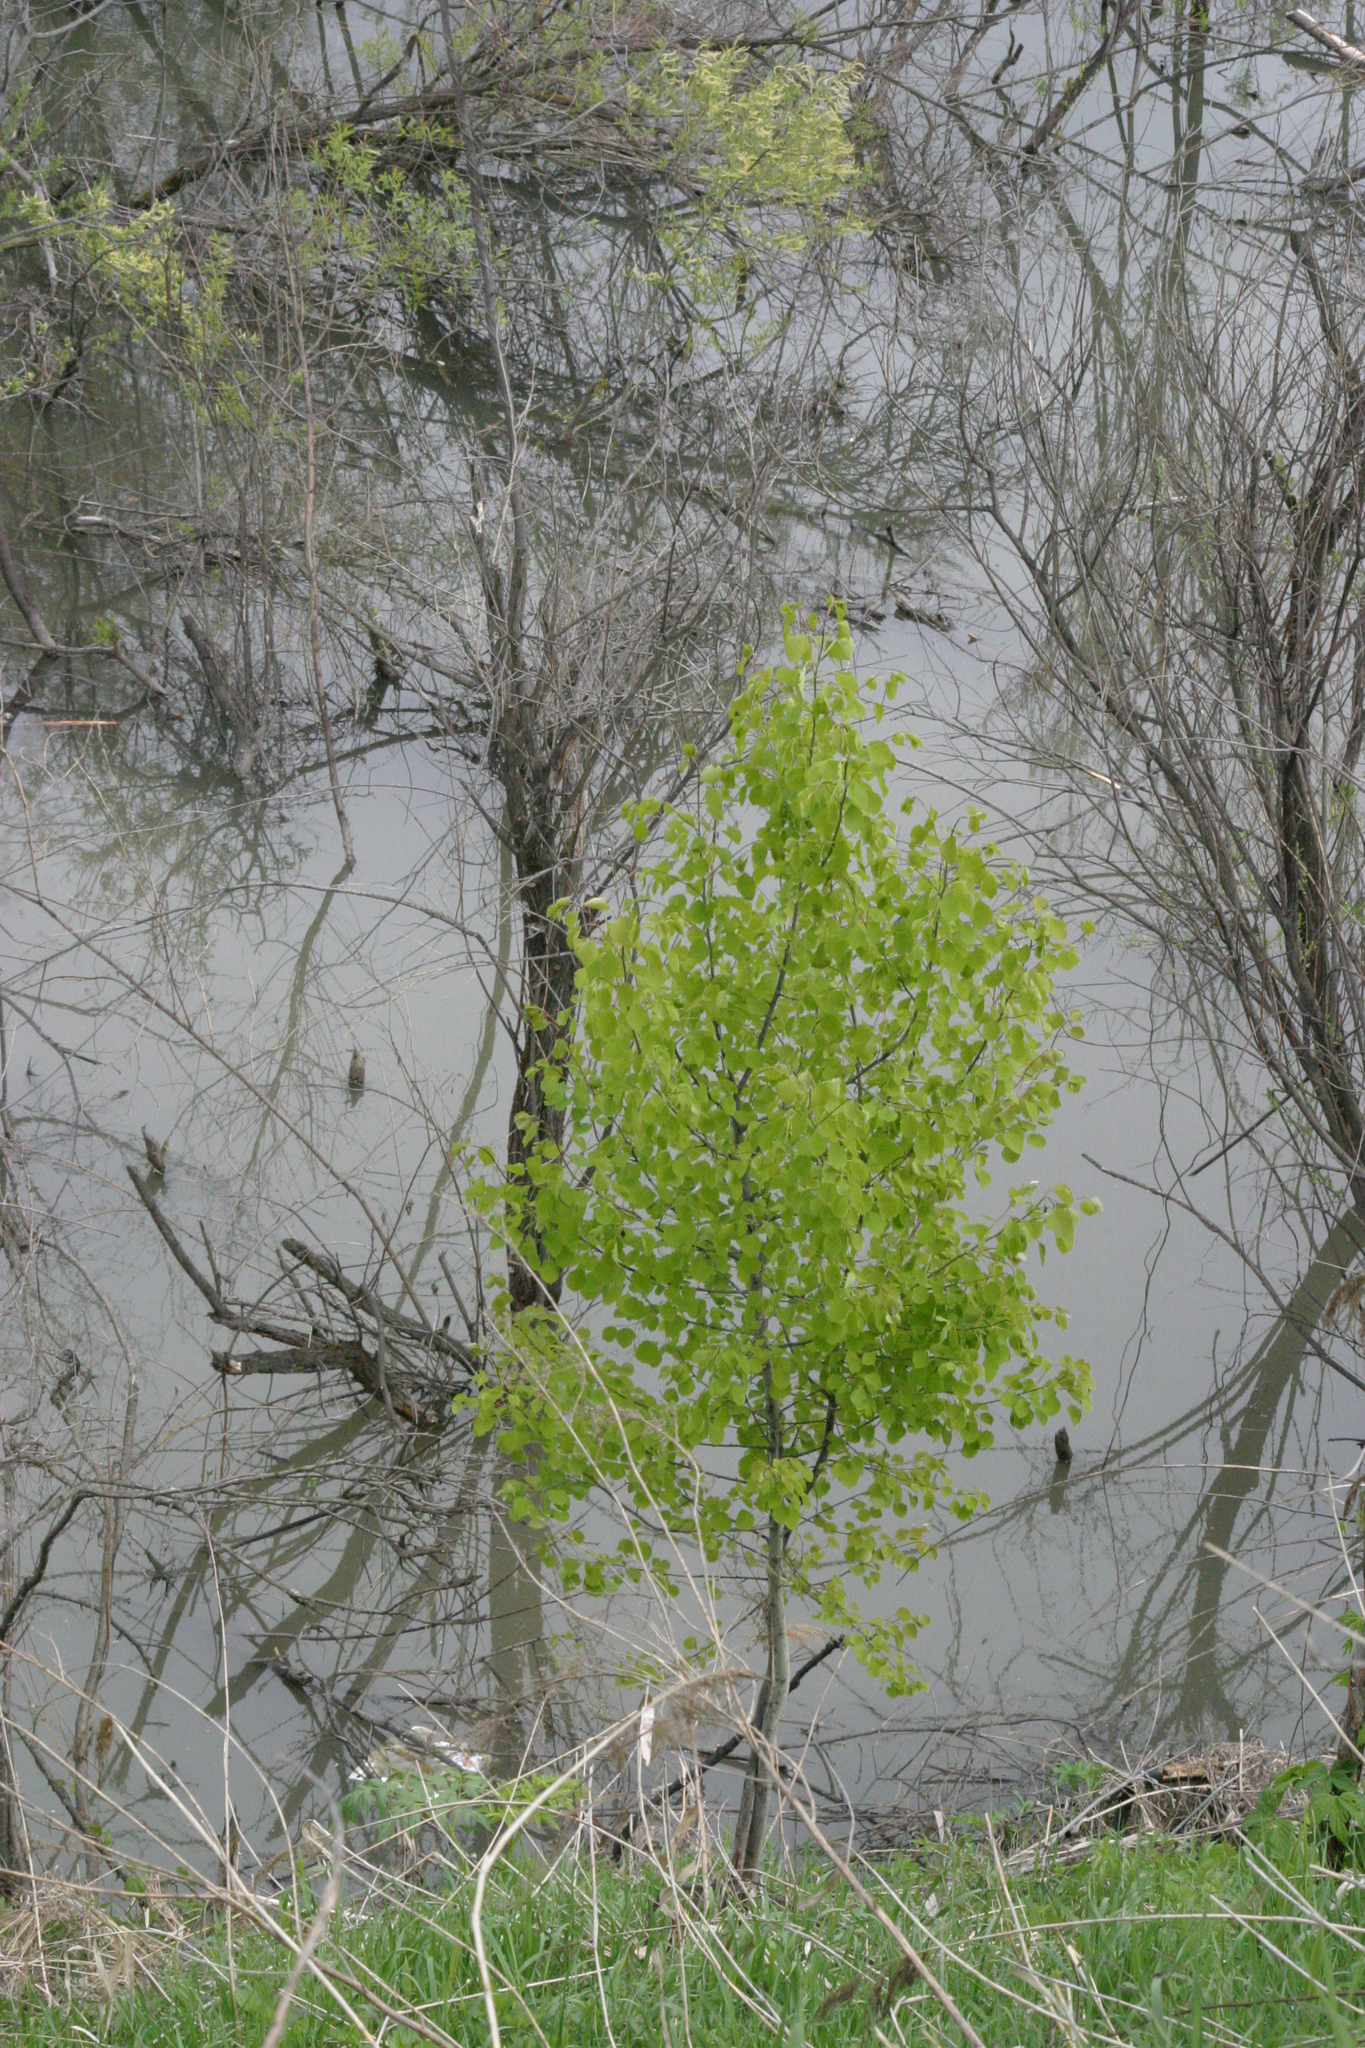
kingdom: Plantae
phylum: Tracheophyta
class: Magnoliopsida
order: Malpighiales
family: Salicaceae
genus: Populus
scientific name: Populus tremula
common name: European aspen
